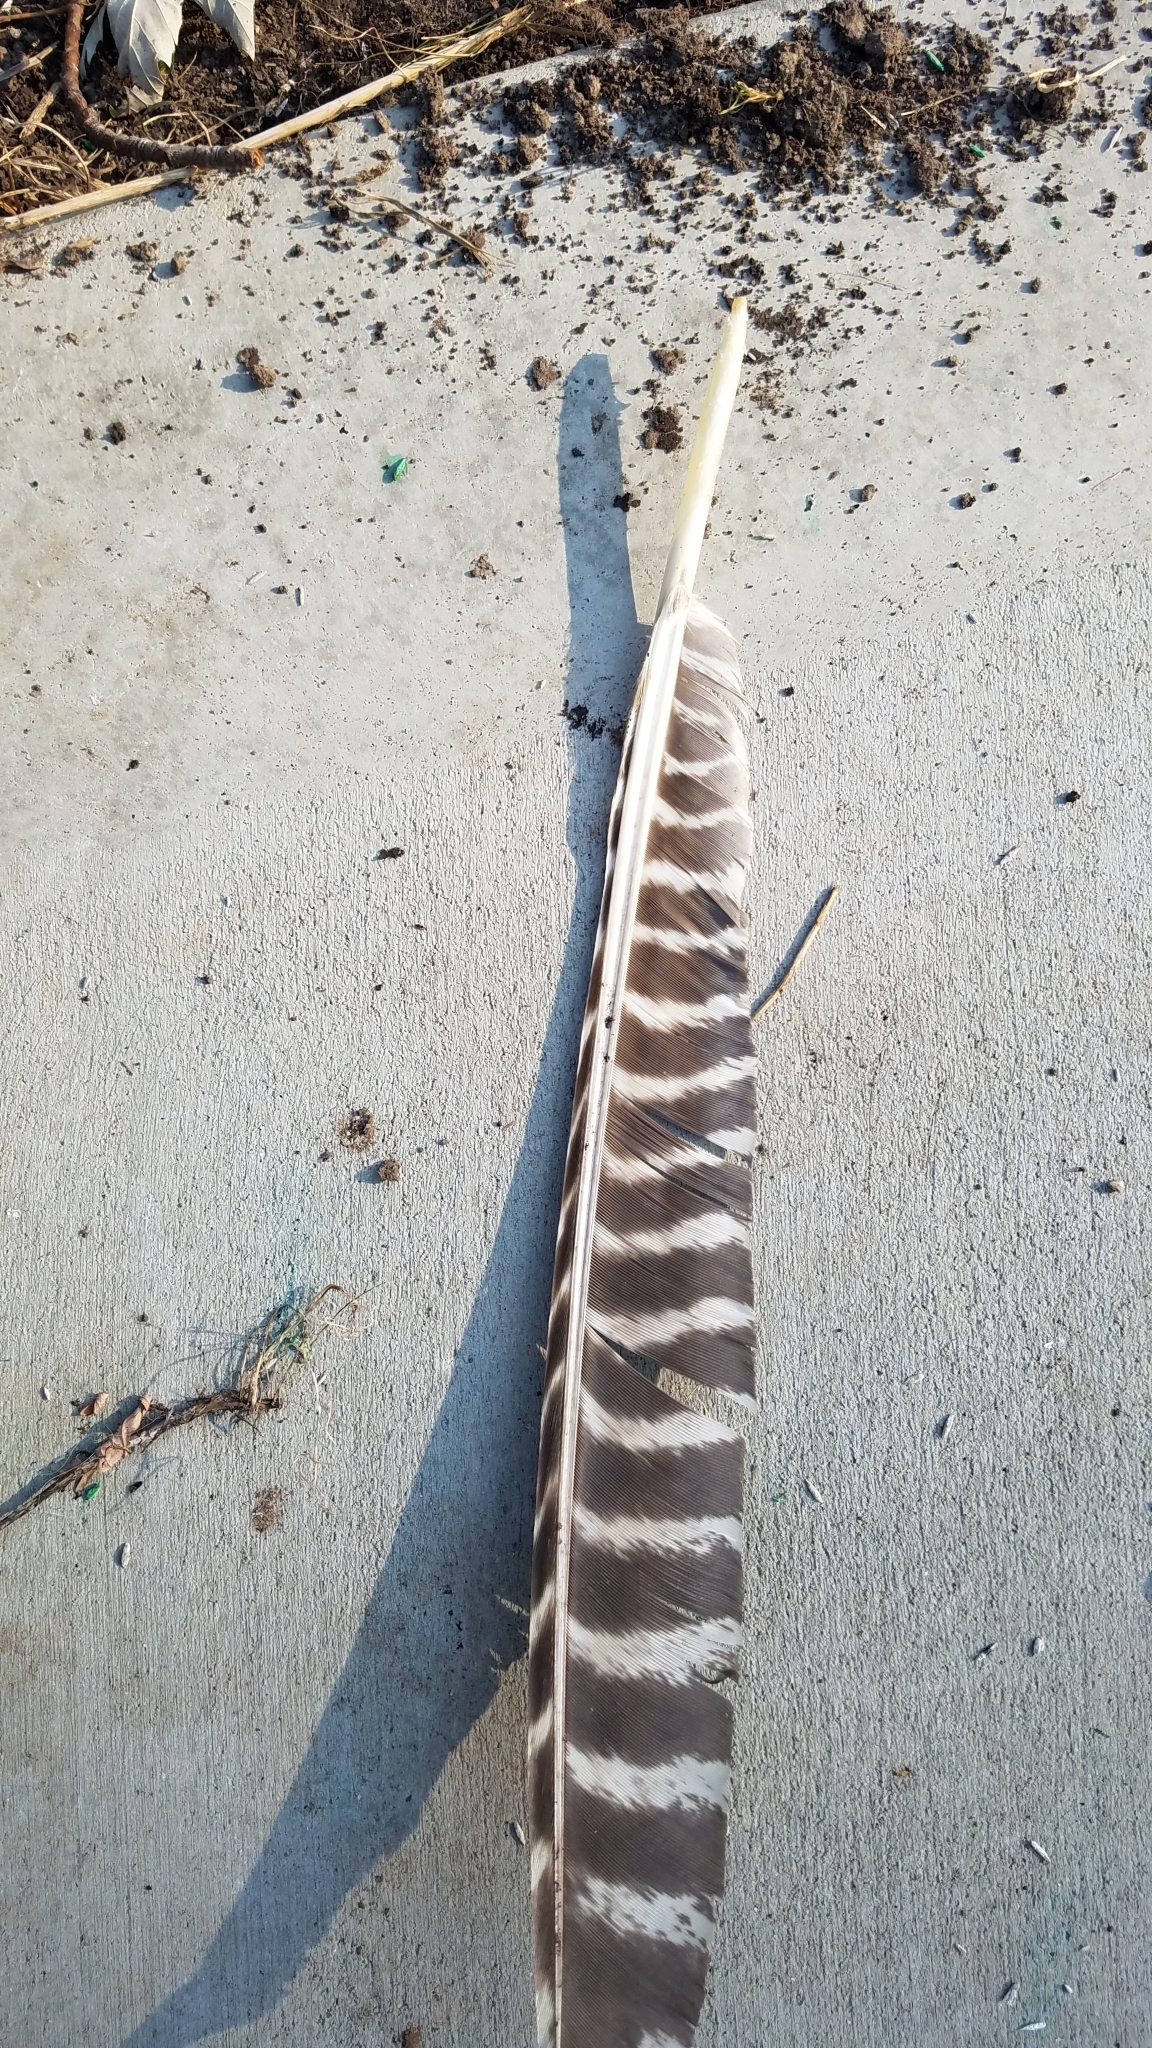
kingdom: Animalia
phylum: Chordata
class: Aves
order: Galliformes
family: Phasianidae
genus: Meleagris
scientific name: Meleagris gallopavo
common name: Wild turkey
